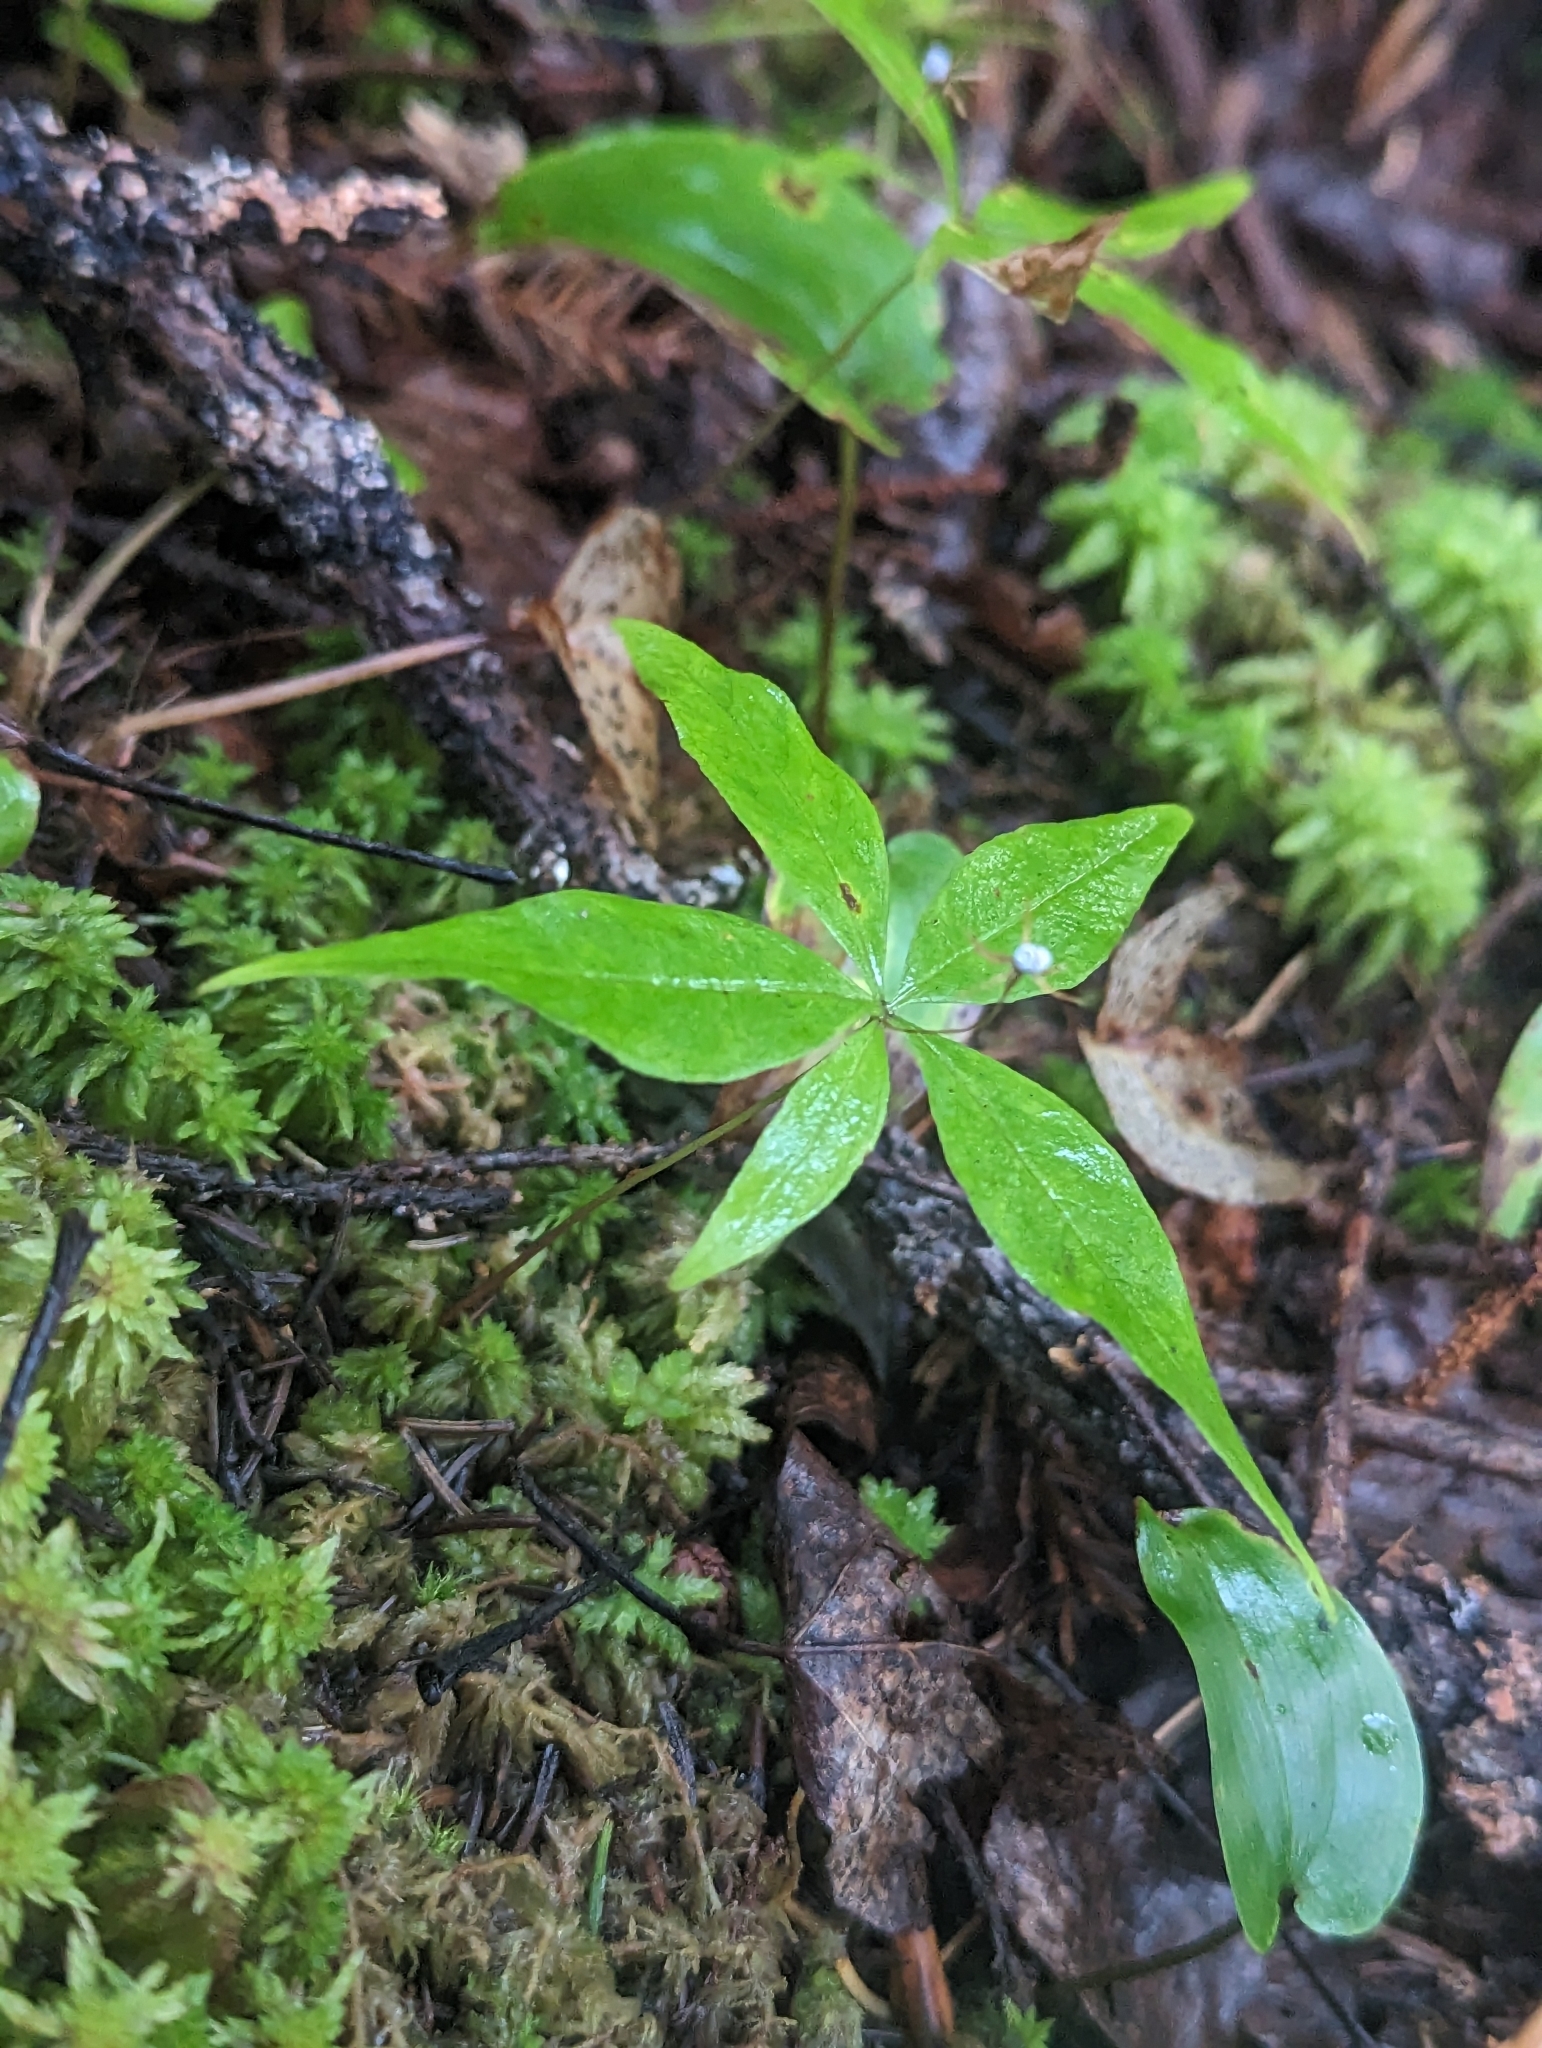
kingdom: Plantae
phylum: Tracheophyta
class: Magnoliopsida
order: Ericales
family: Primulaceae
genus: Lysimachia
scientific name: Lysimachia borealis
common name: American starflower
